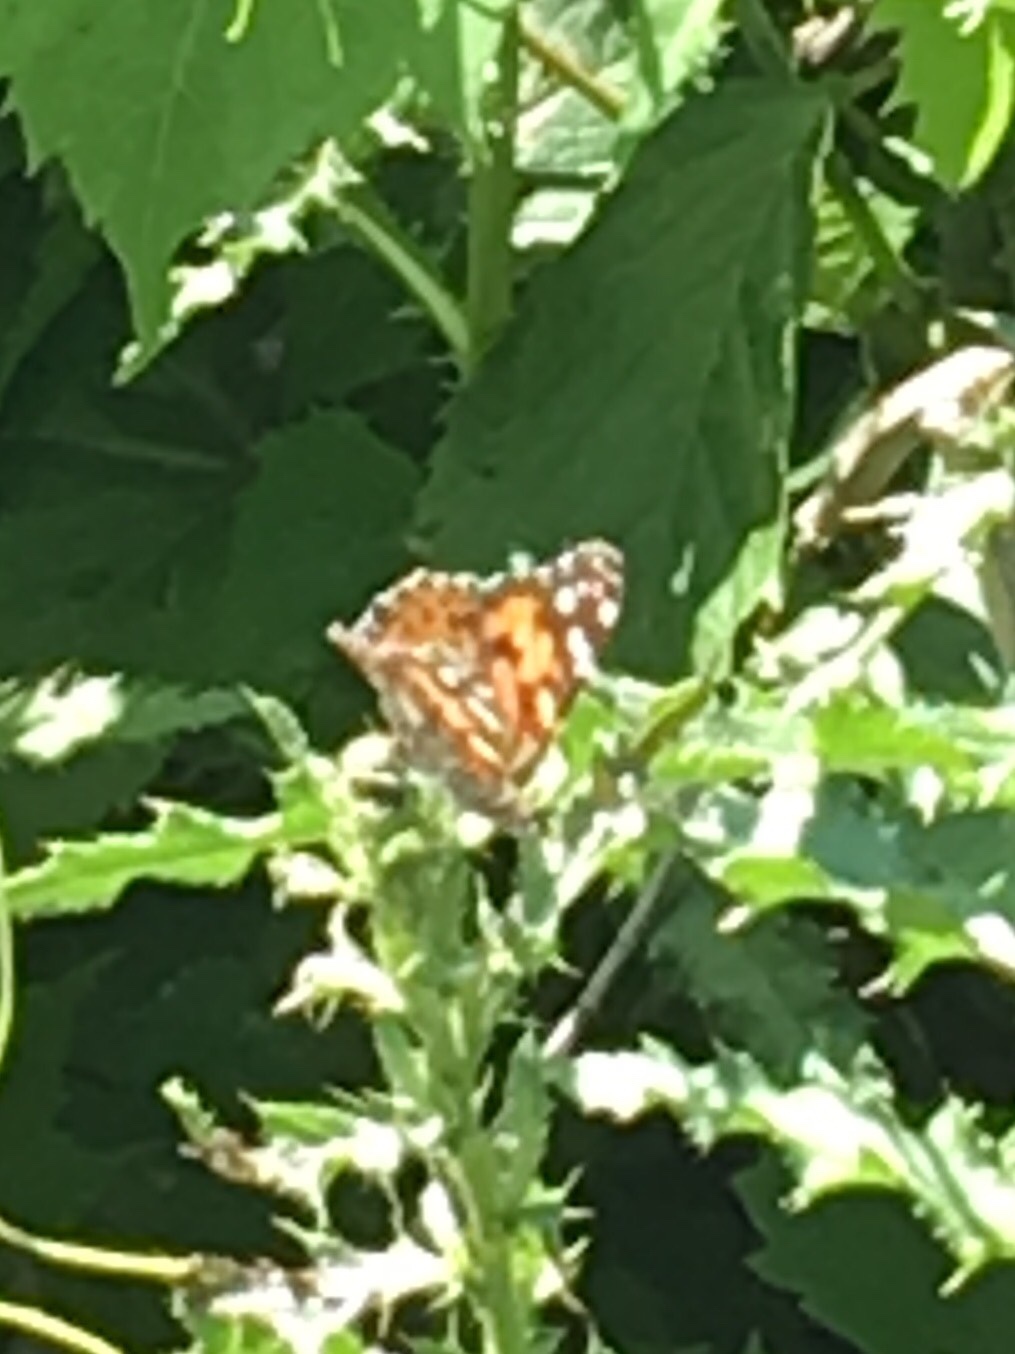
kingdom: Animalia
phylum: Arthropoda
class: Insecta
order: Lepidoptera
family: Nymphalidae
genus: Vanessa
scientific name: Vanessa cardui
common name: Painted lady
